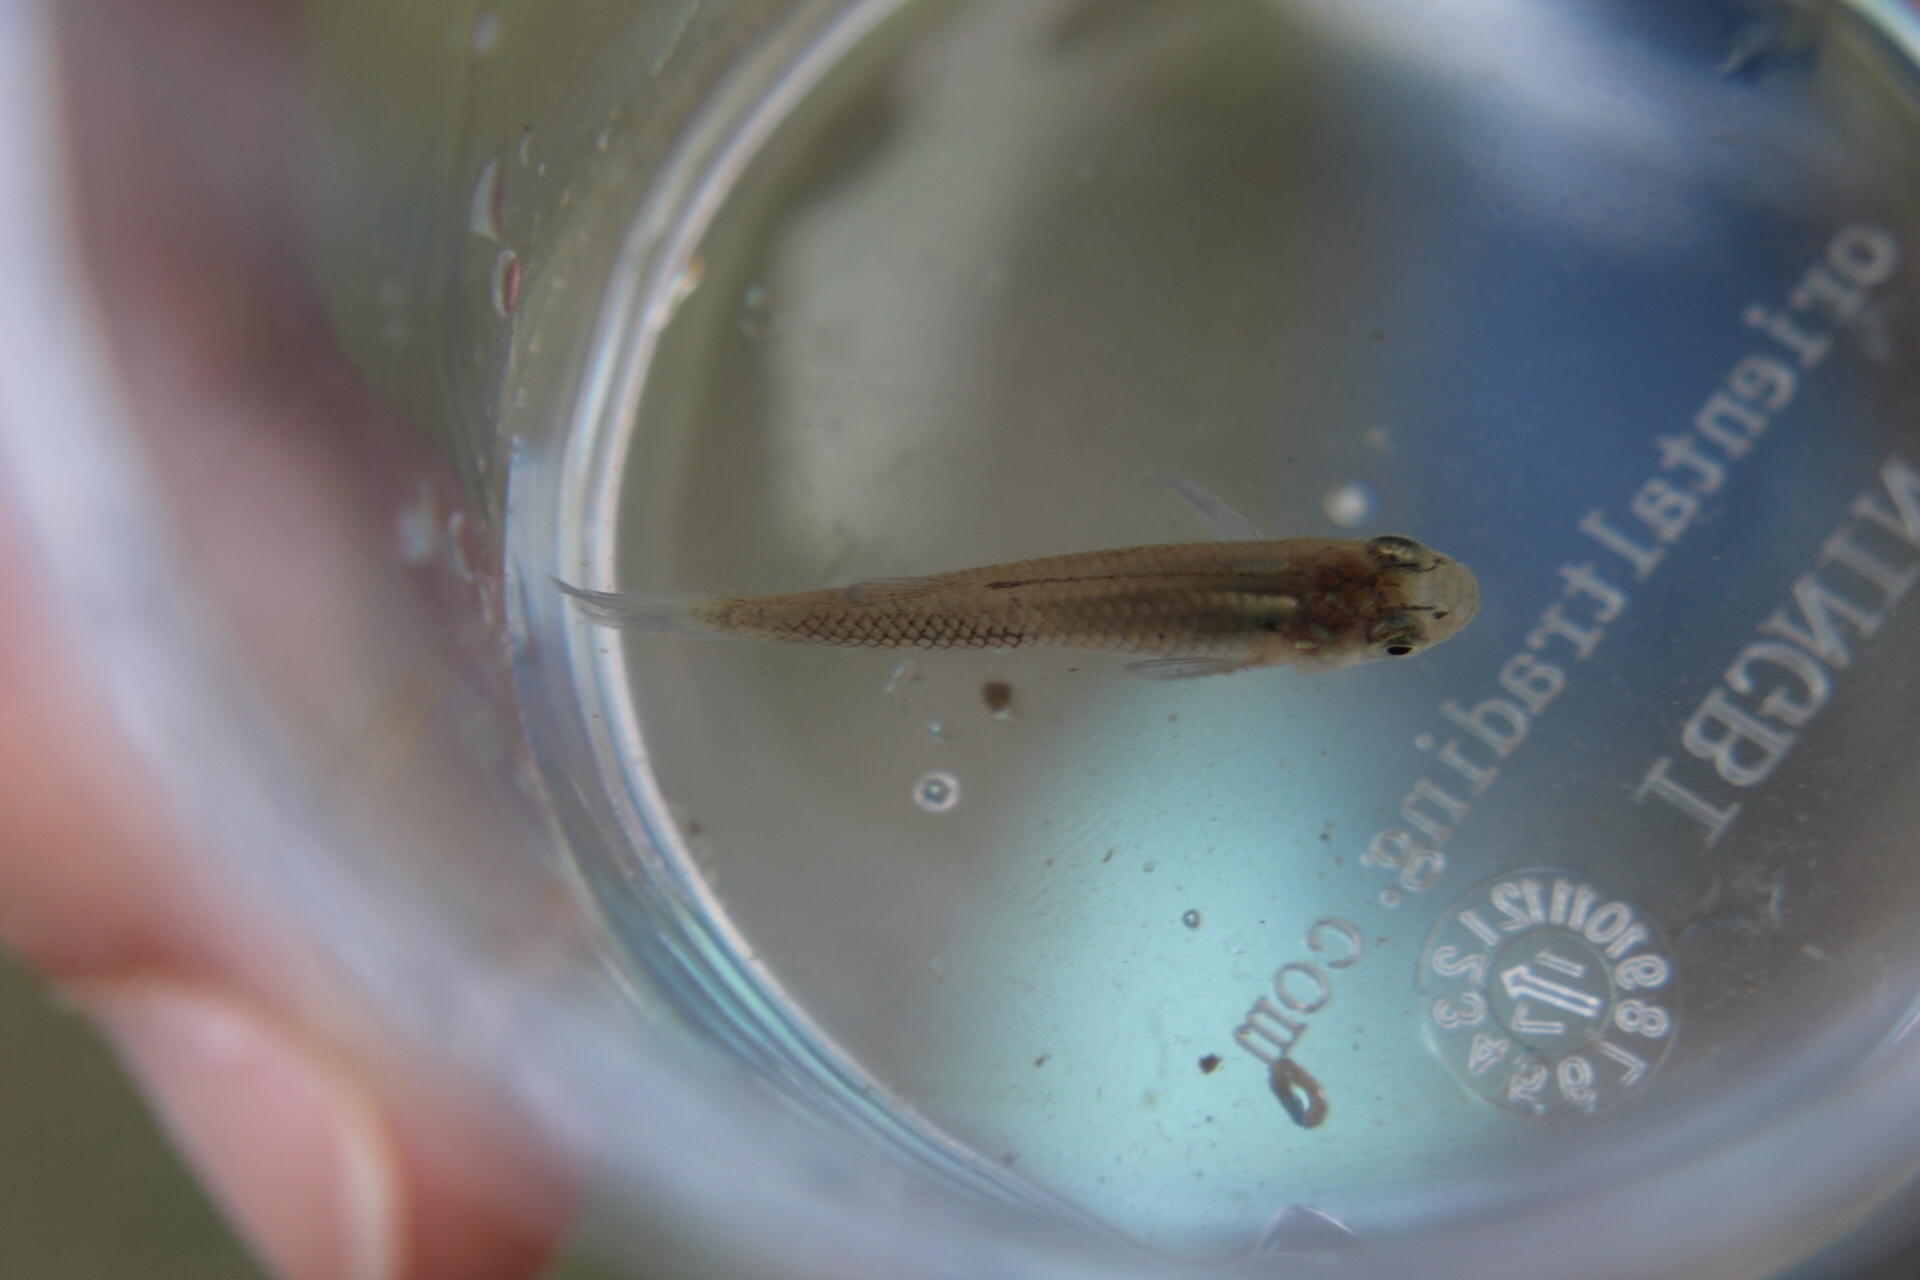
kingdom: Animalia
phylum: Chordata
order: Cyprinodontiformes
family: Poeciliidae
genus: Gambusia
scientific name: Gambusia affinis
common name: Mosquitofish
